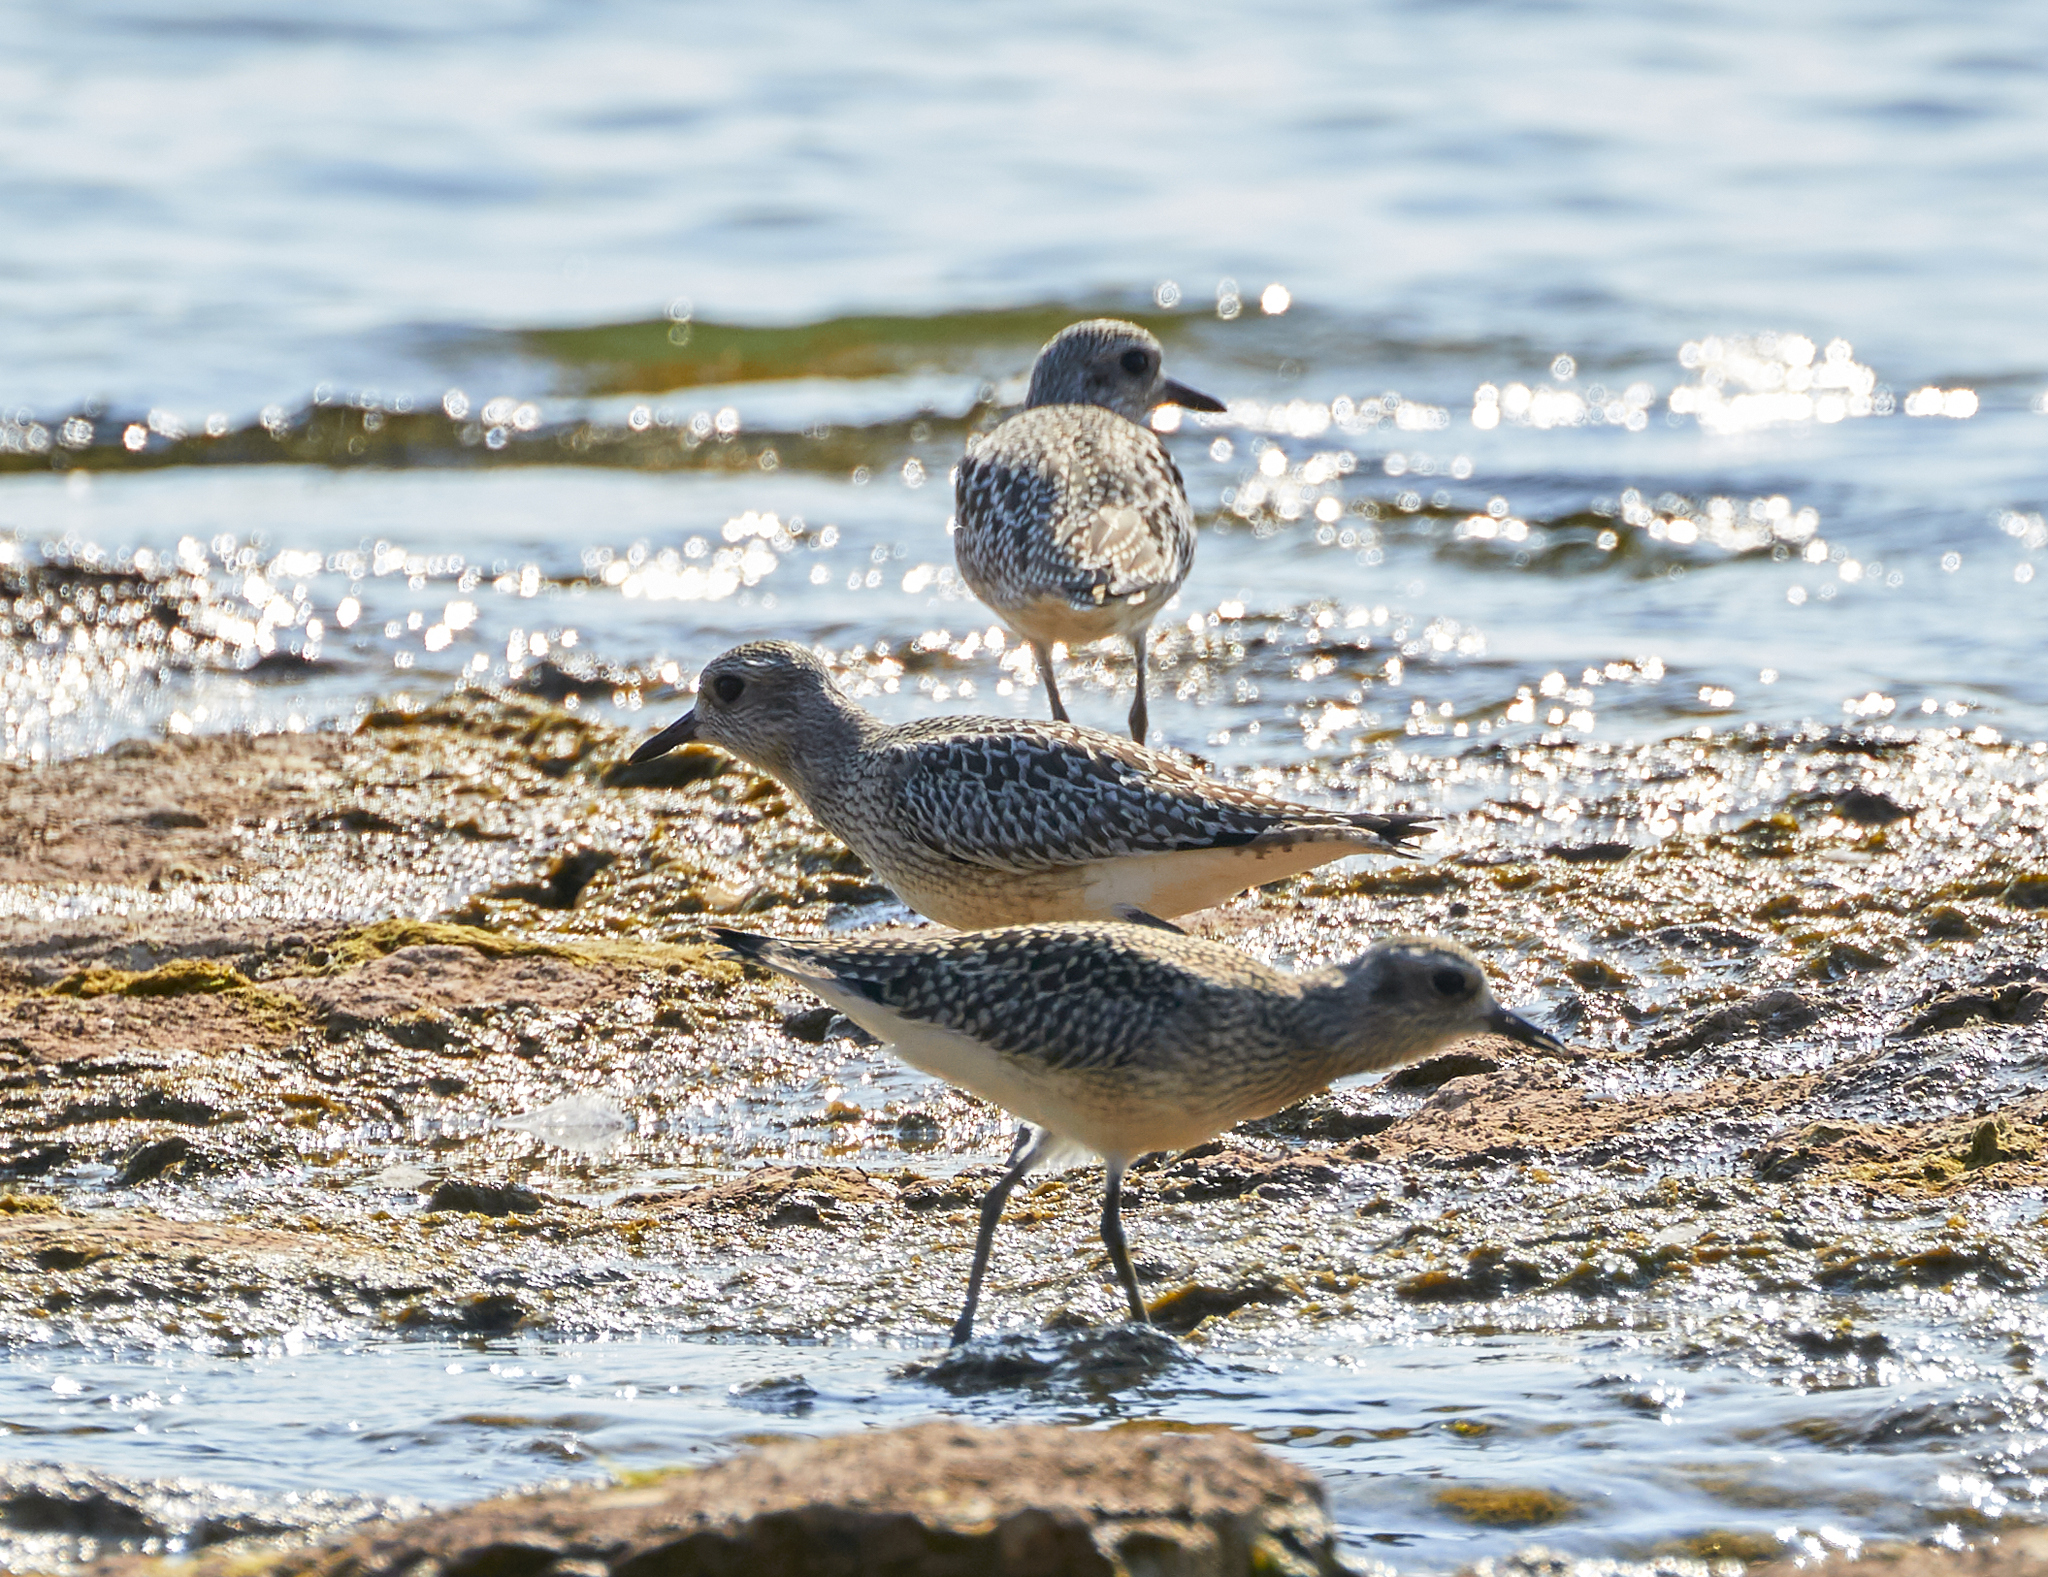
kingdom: Animalia
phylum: Chordata
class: Aves
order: Charadriiformes
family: Charadriidae
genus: Pluvialis
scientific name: Pluvialis squatarola
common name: Grey plover
